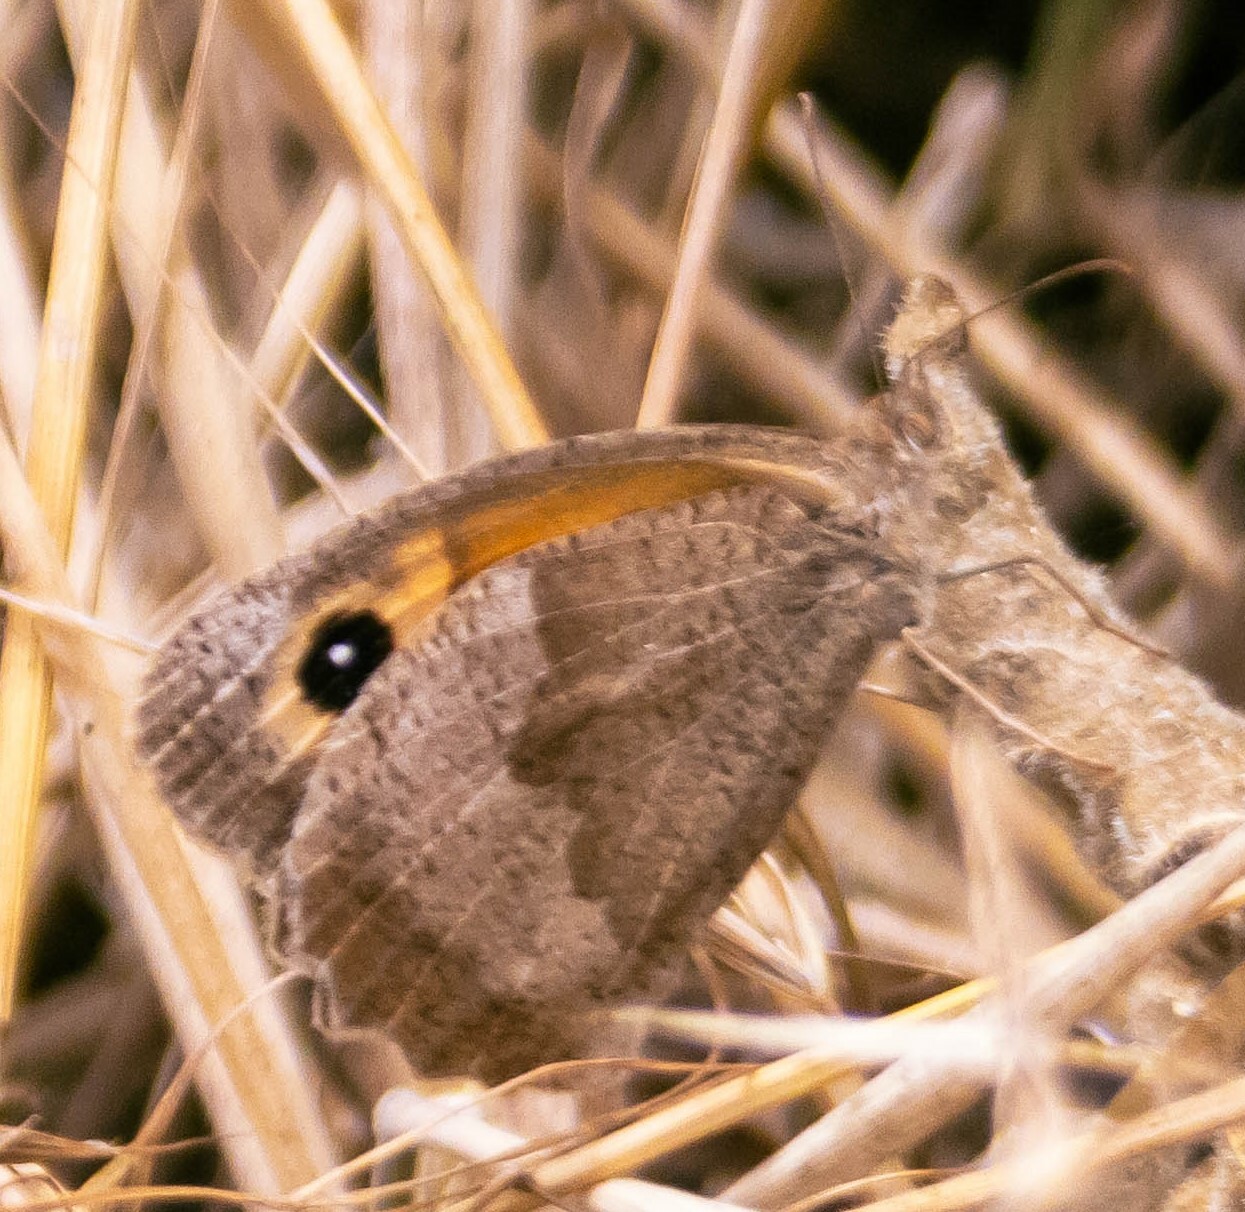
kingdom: Animalia
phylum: Arthropoda
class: Insecta
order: Lepidoptera
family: Nymphalidae
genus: Maniola
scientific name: Maniola jurtina
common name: Meadow brown
